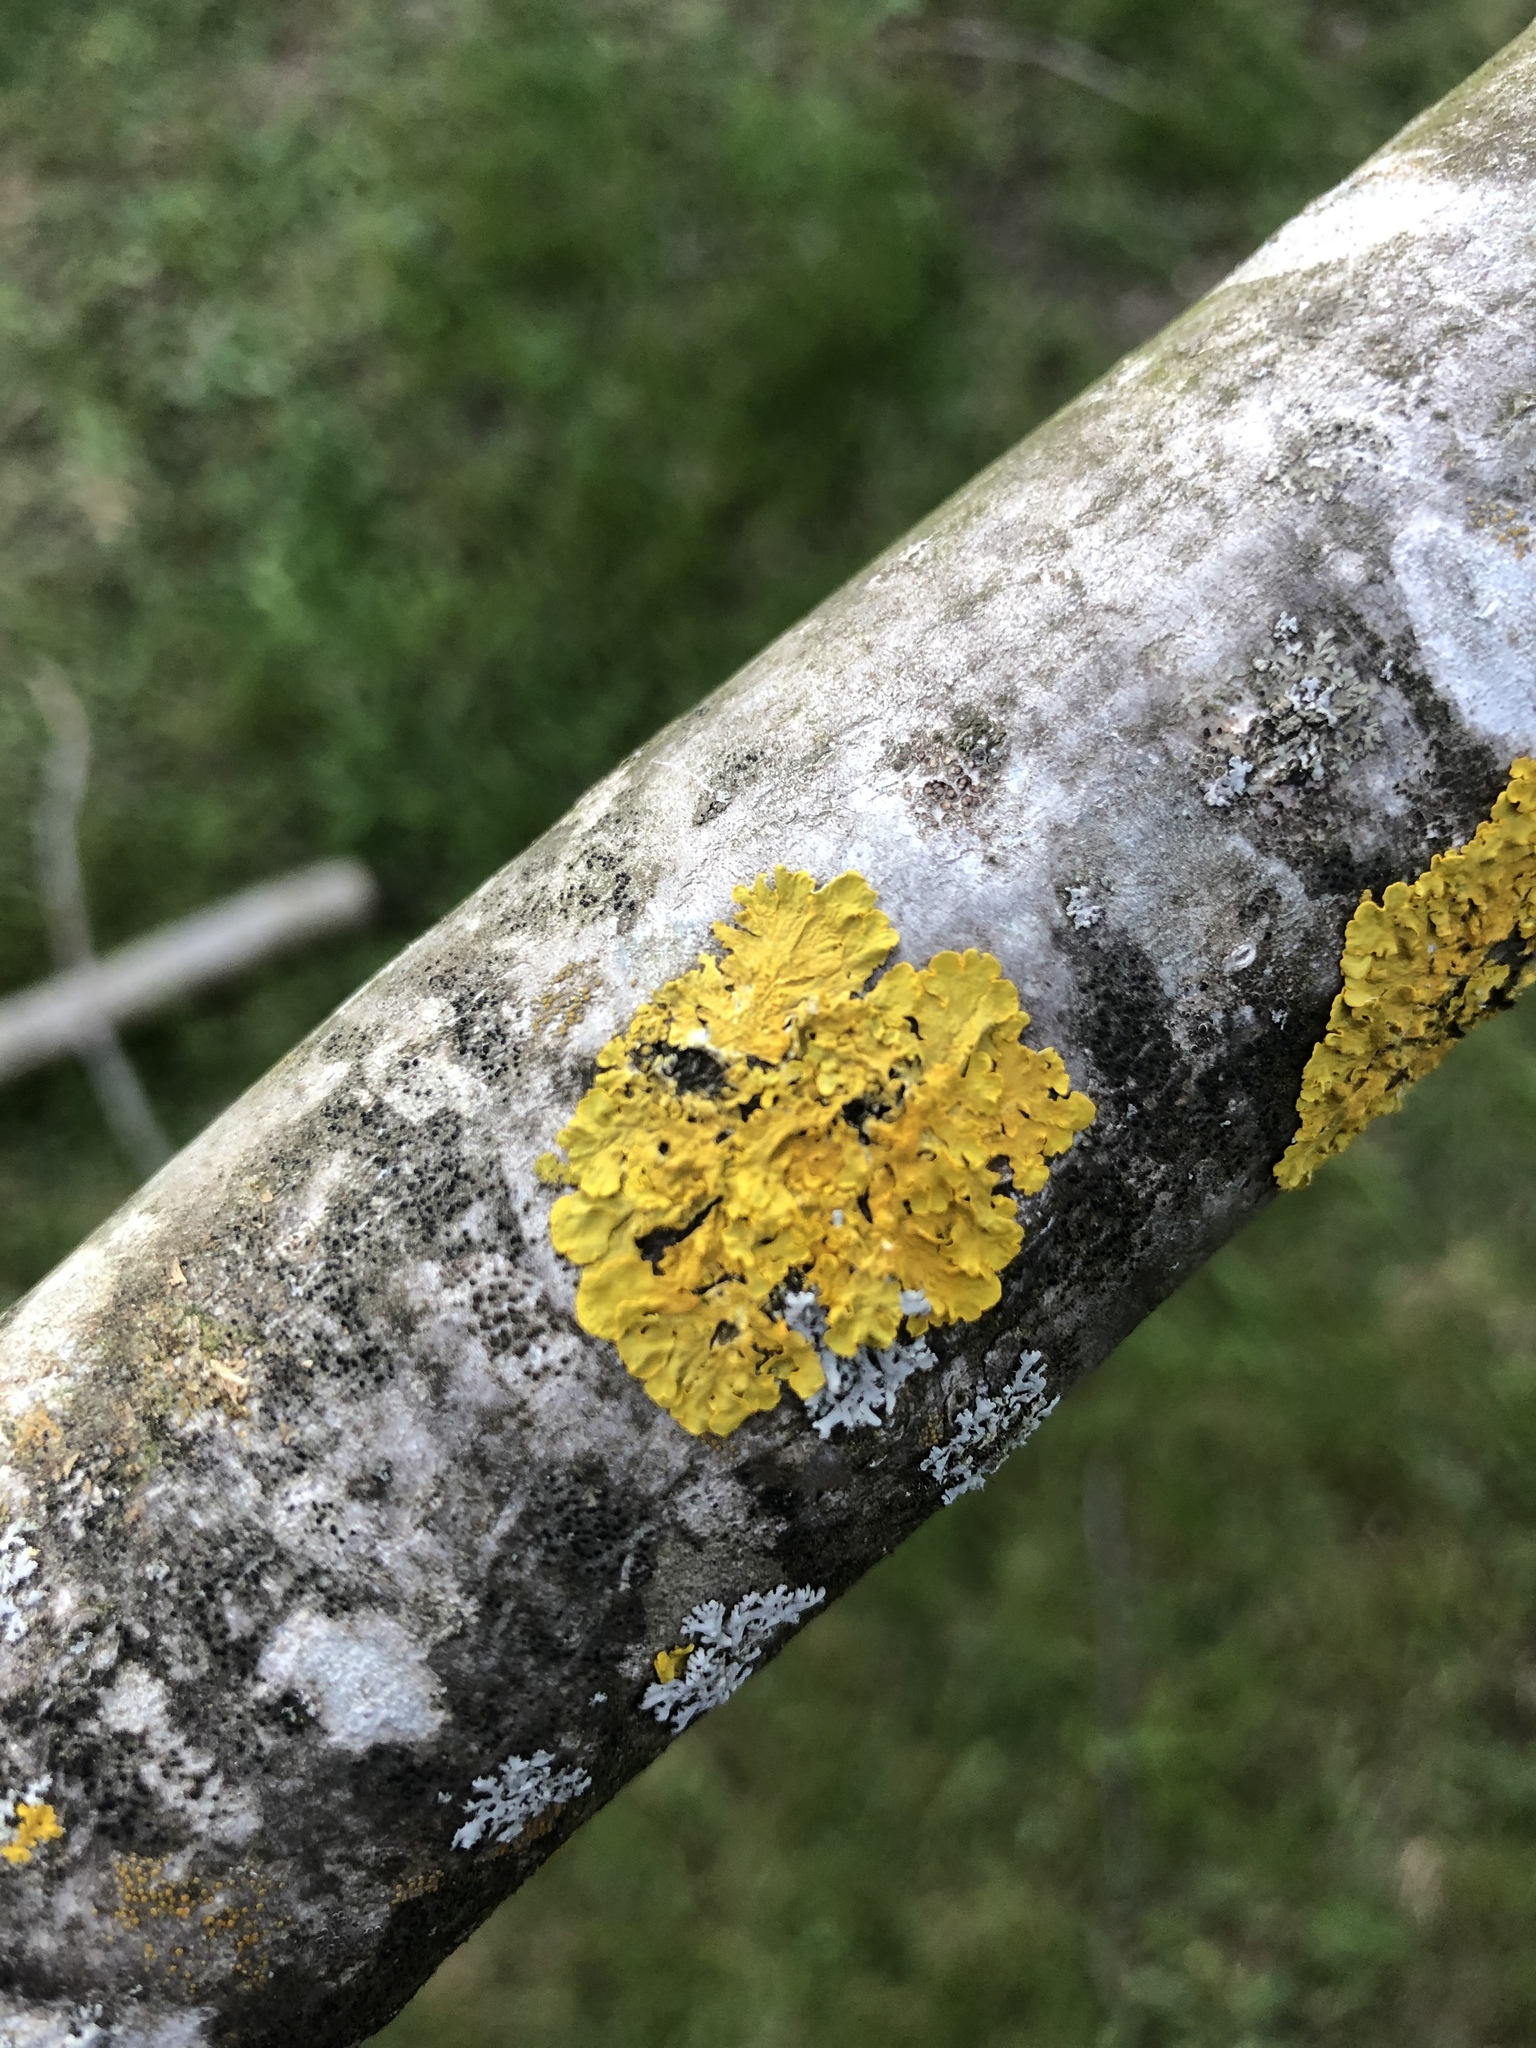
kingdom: Fungi
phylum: Ascomycota
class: Lecanoromycetes
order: Teloschistales
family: Teloschistaceae
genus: Xanthoria
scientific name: Xanthoria parietina
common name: Common orange lichen
